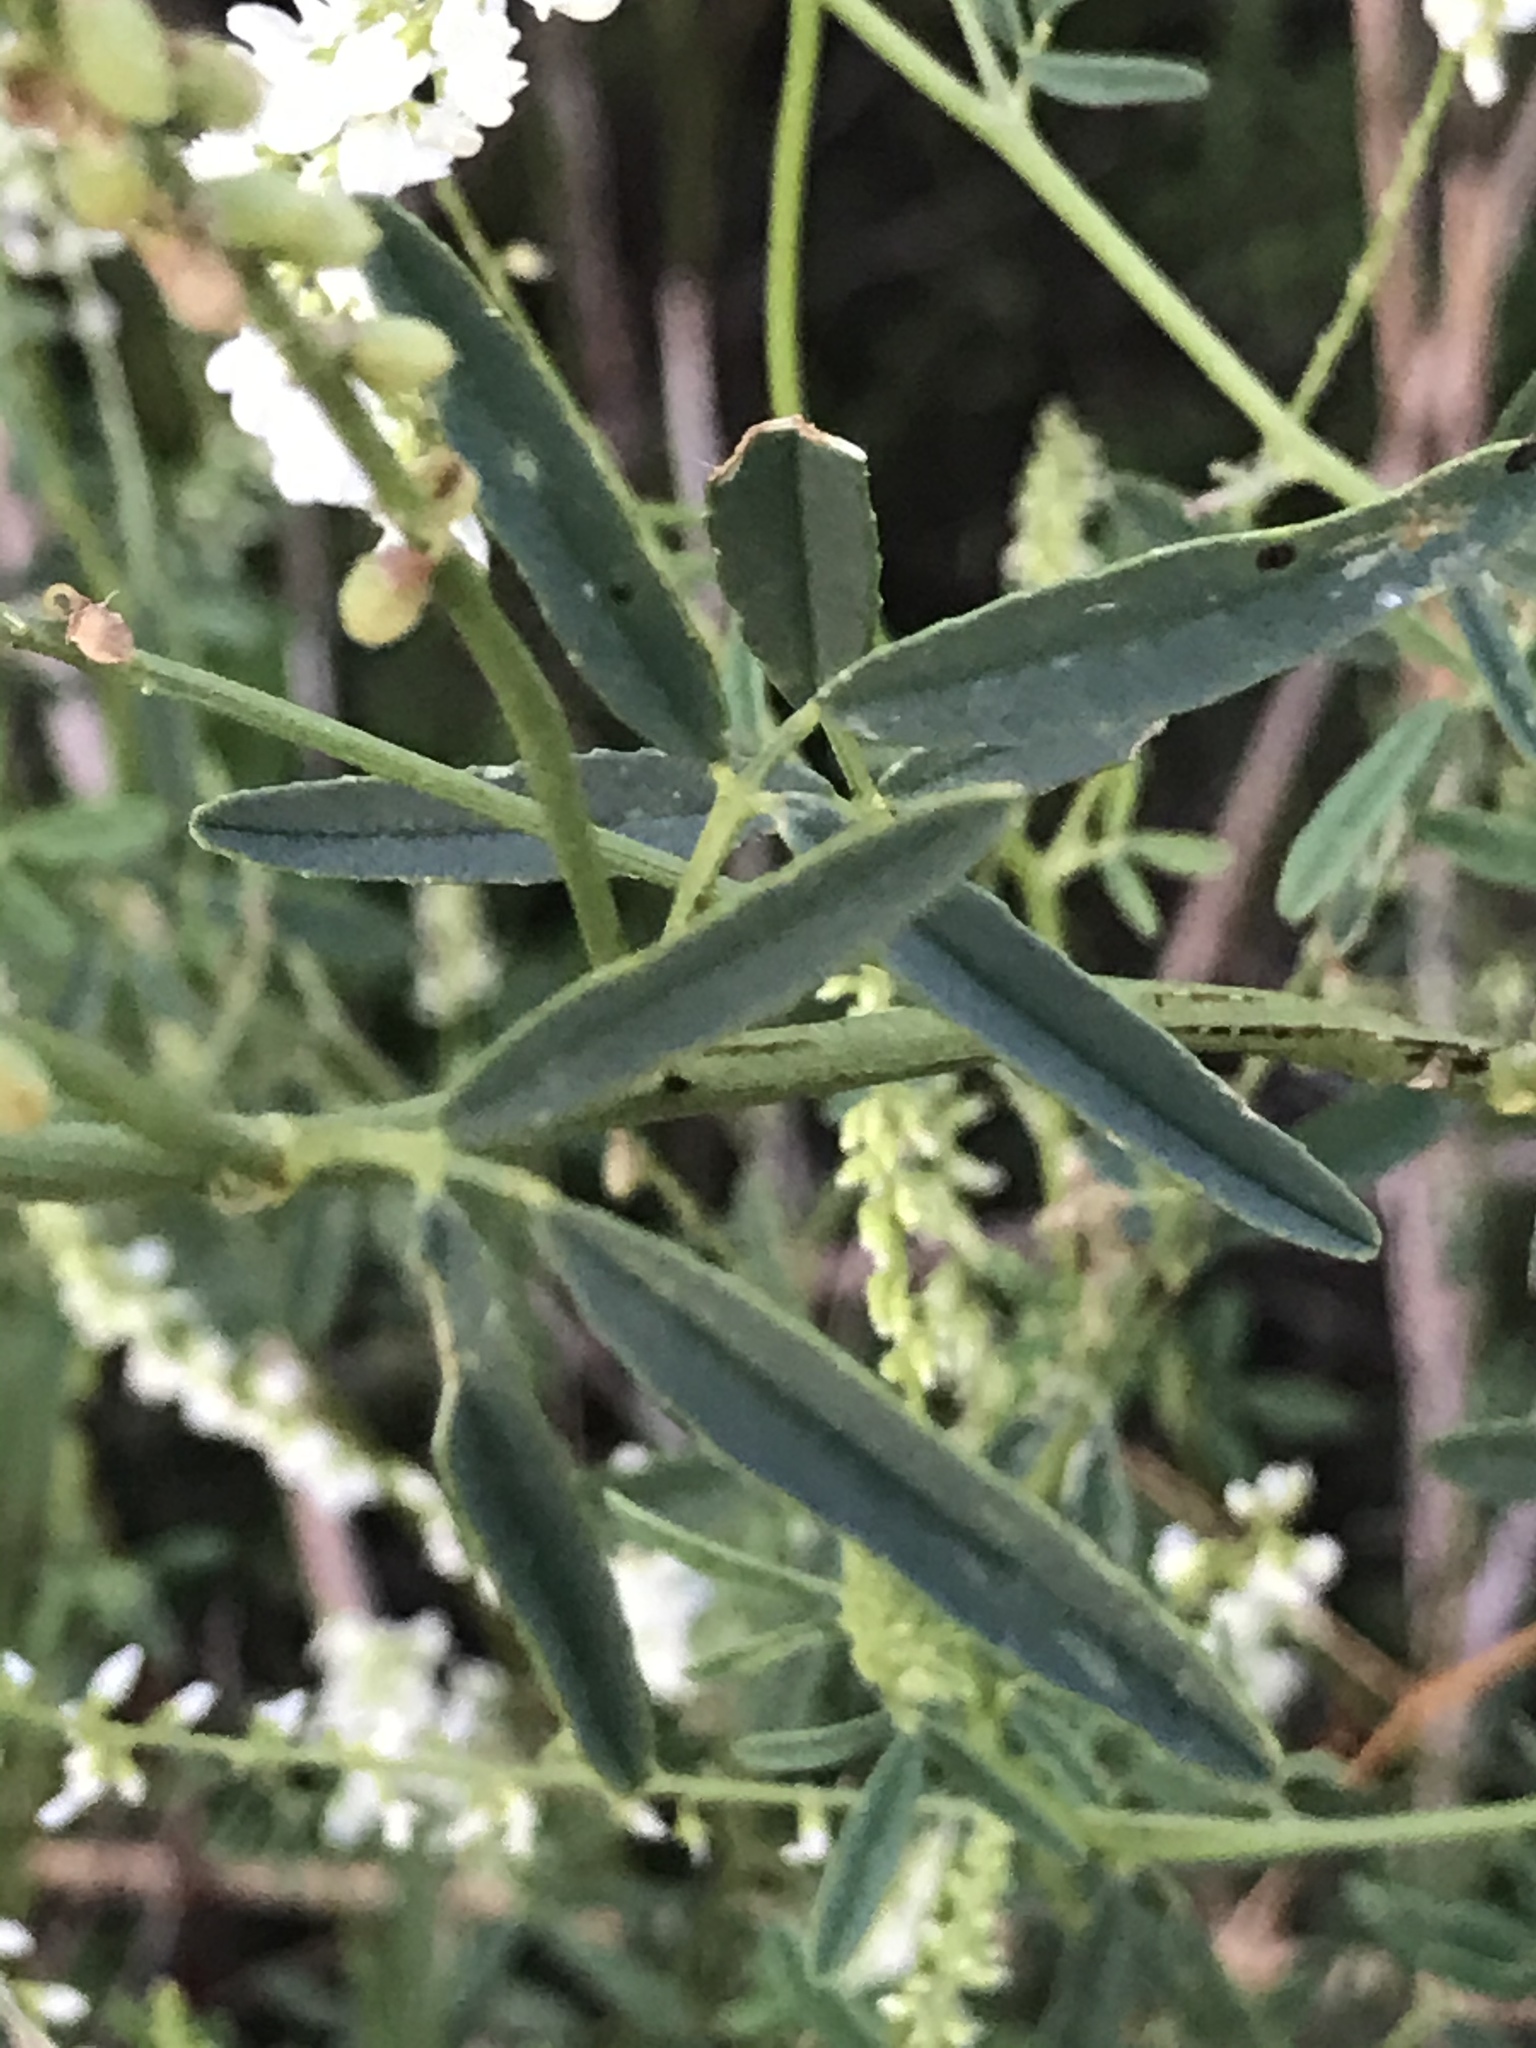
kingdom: Plantae
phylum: Tracheophyta
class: Magnoliopsida
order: Fabales
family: Fabaceae
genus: Melilotus
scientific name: Melilotus albus
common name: White melilot
